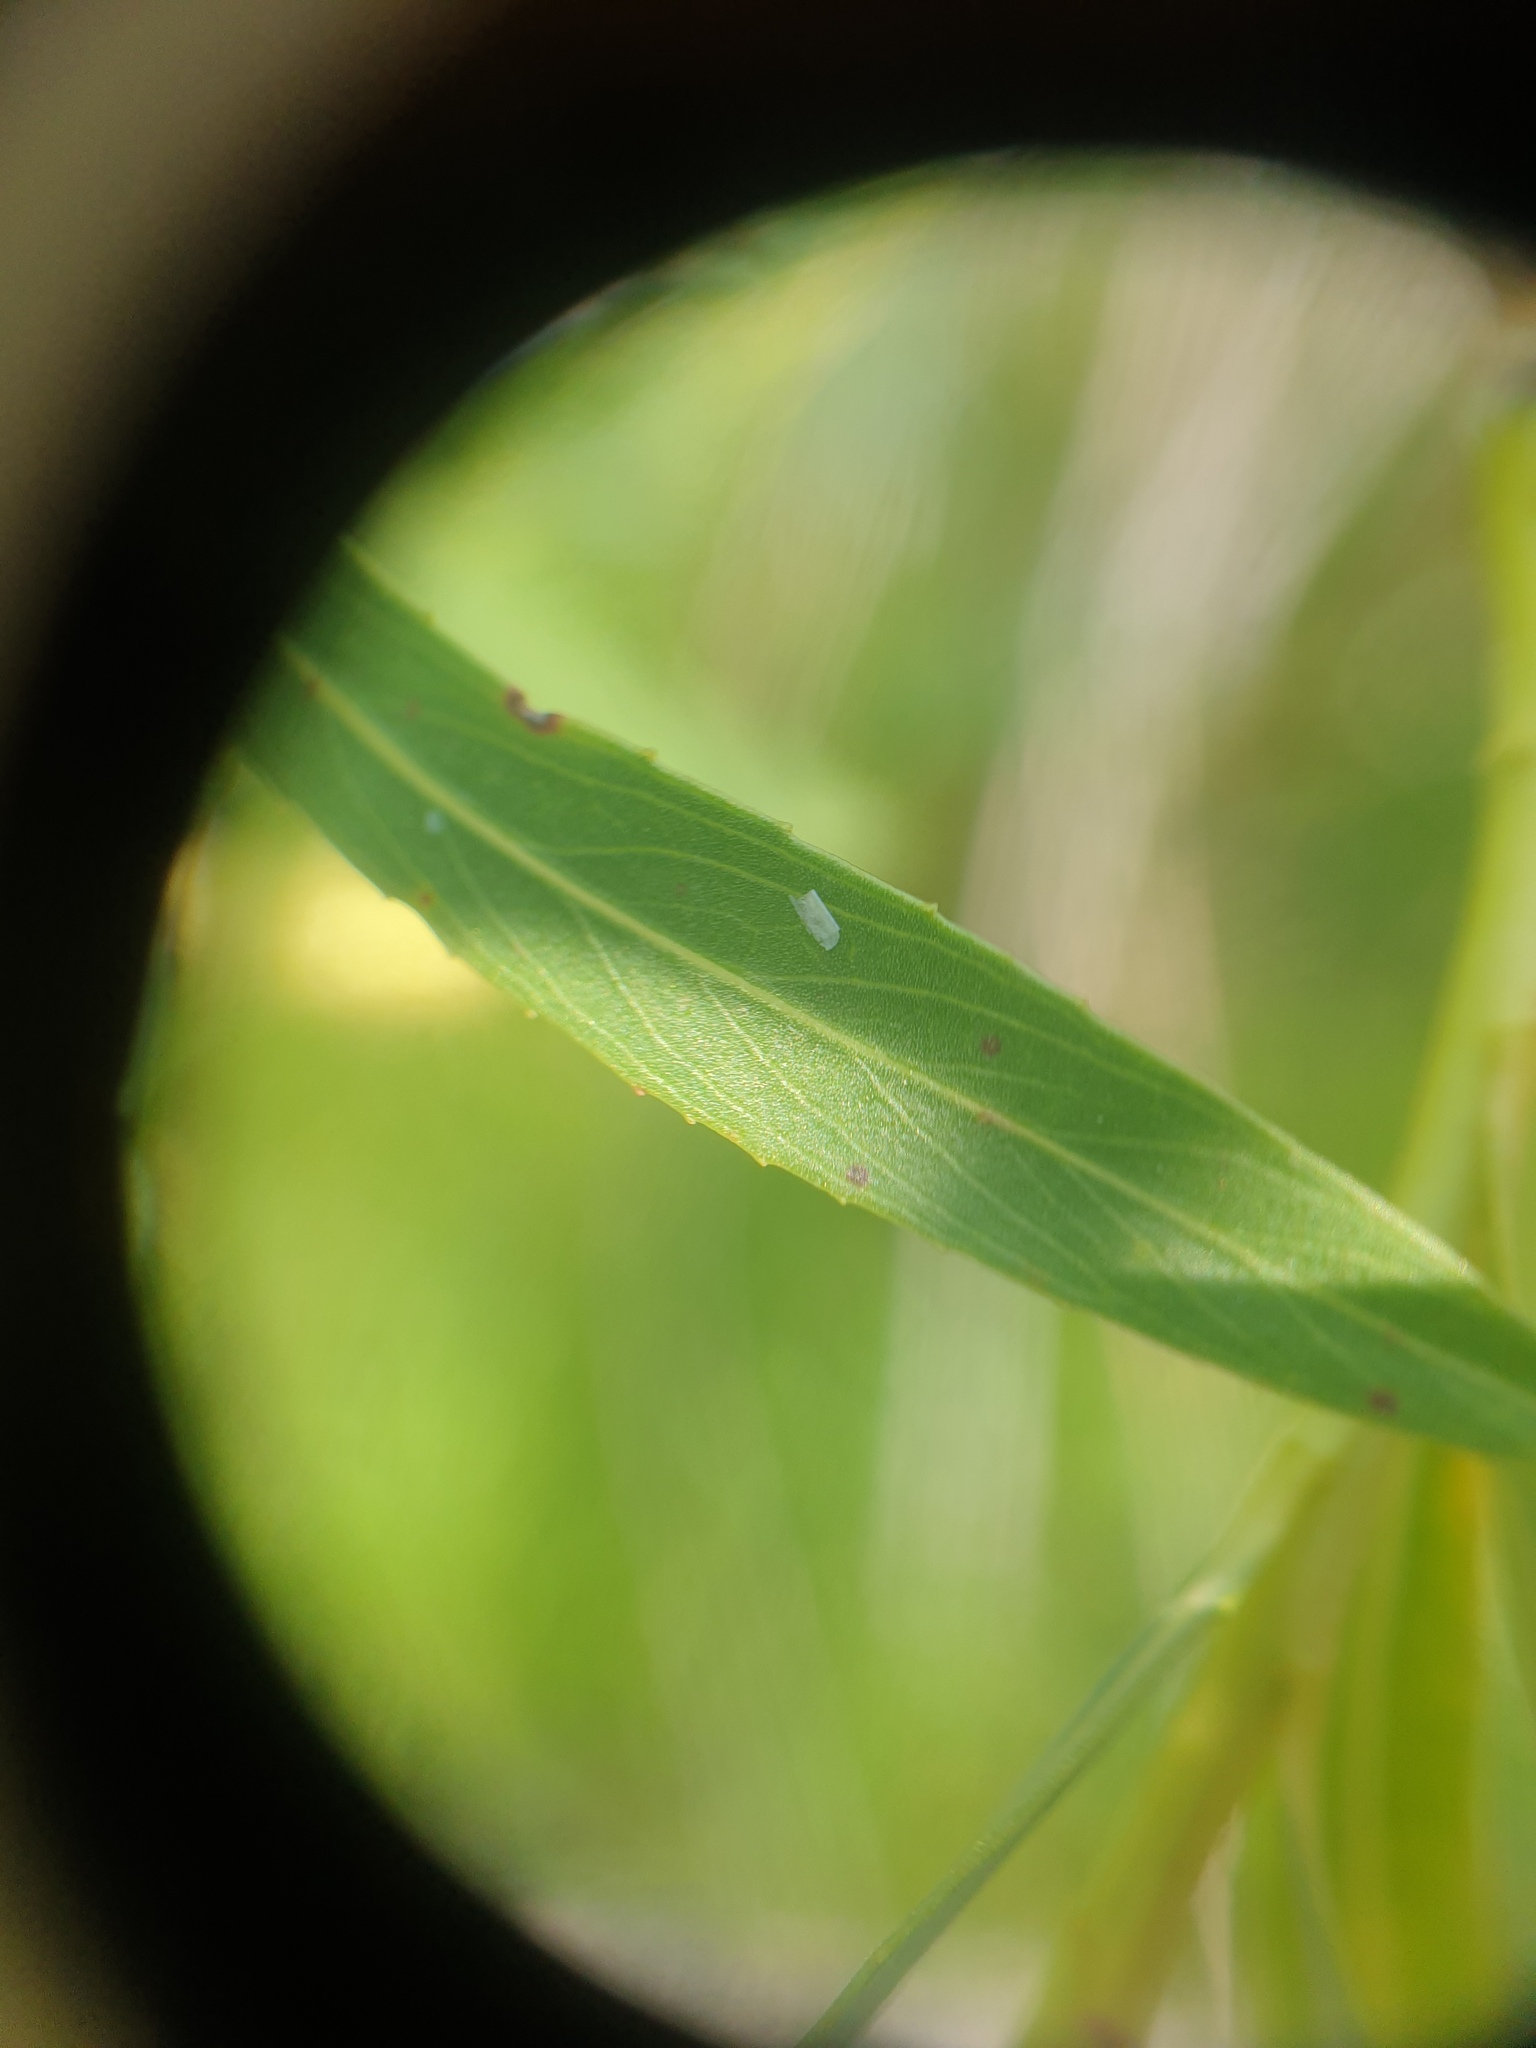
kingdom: Plantae
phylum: Tracheophyta
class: Magnoliopsida
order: Malpighiales
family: Salicaceae
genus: Salix
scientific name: Salix interior
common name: Sandbar willow
